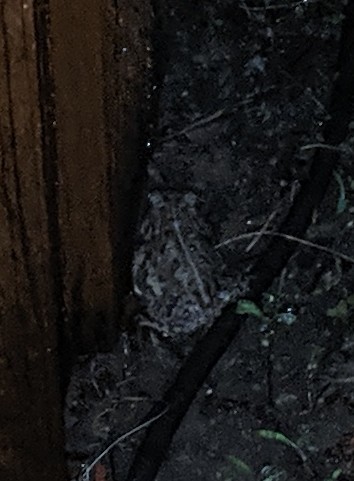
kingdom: Animalia
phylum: Chordata
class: Amphibia
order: Anura
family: Bufonidae
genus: Anaxyrus
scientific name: Anaxyrus woodhousii
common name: Woodhouse's toad
